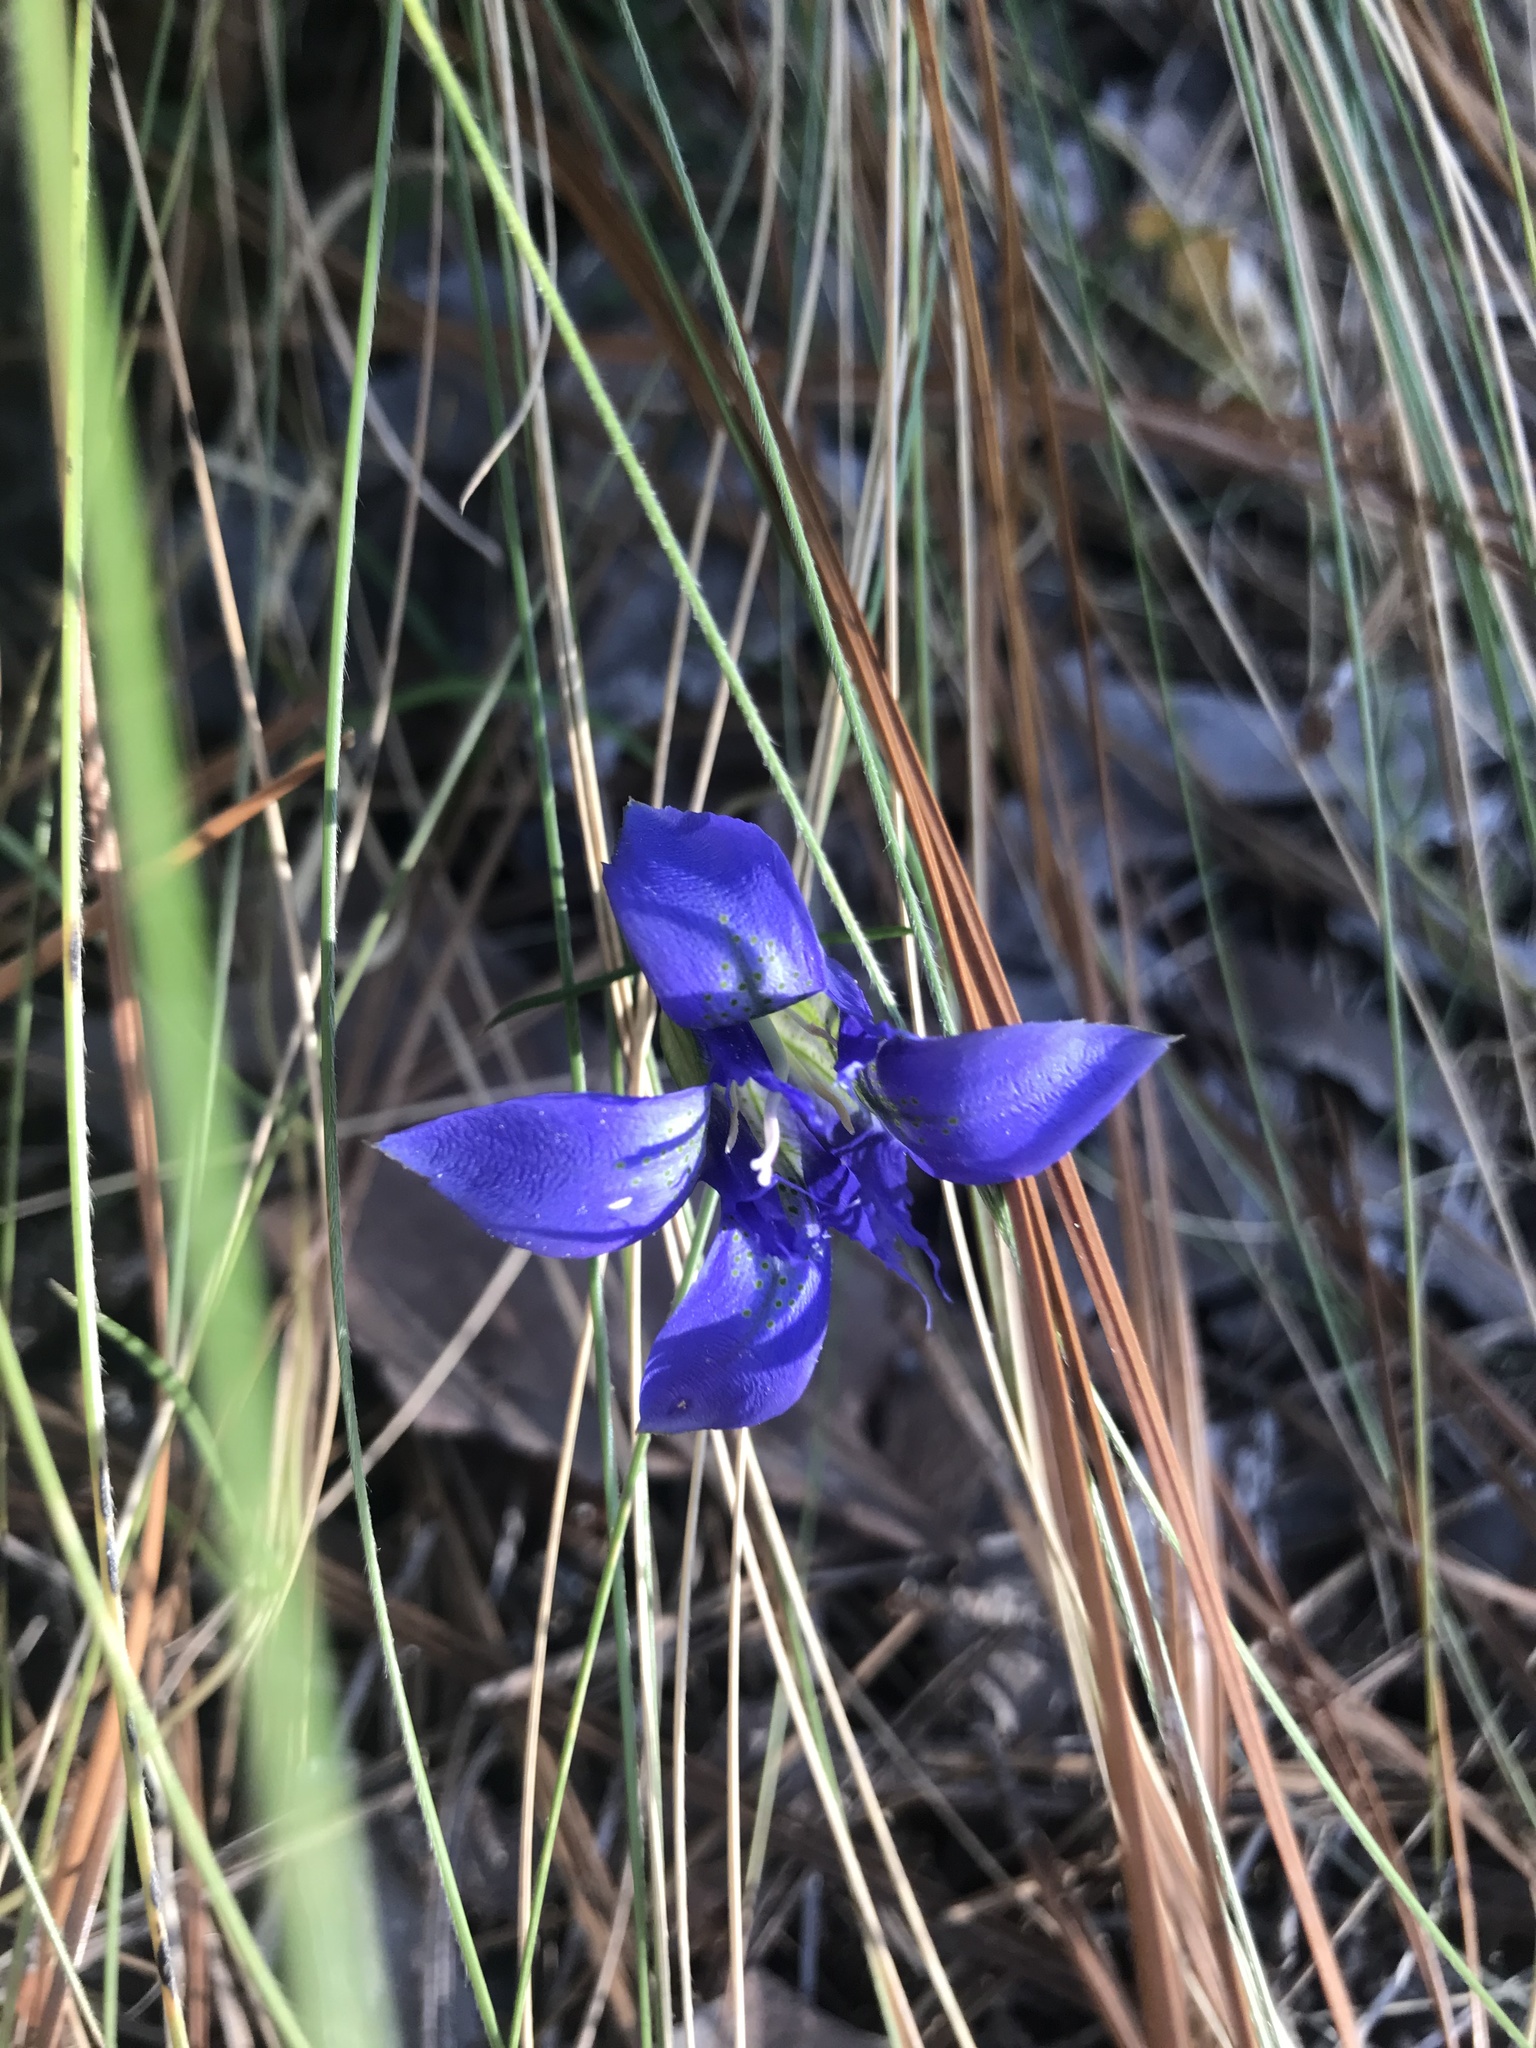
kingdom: Plantae
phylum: Tracheophyta
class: Magnoliopsida
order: Gentianales
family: Gentianaceae
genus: Gentiana
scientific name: Gentiana autumnalis
